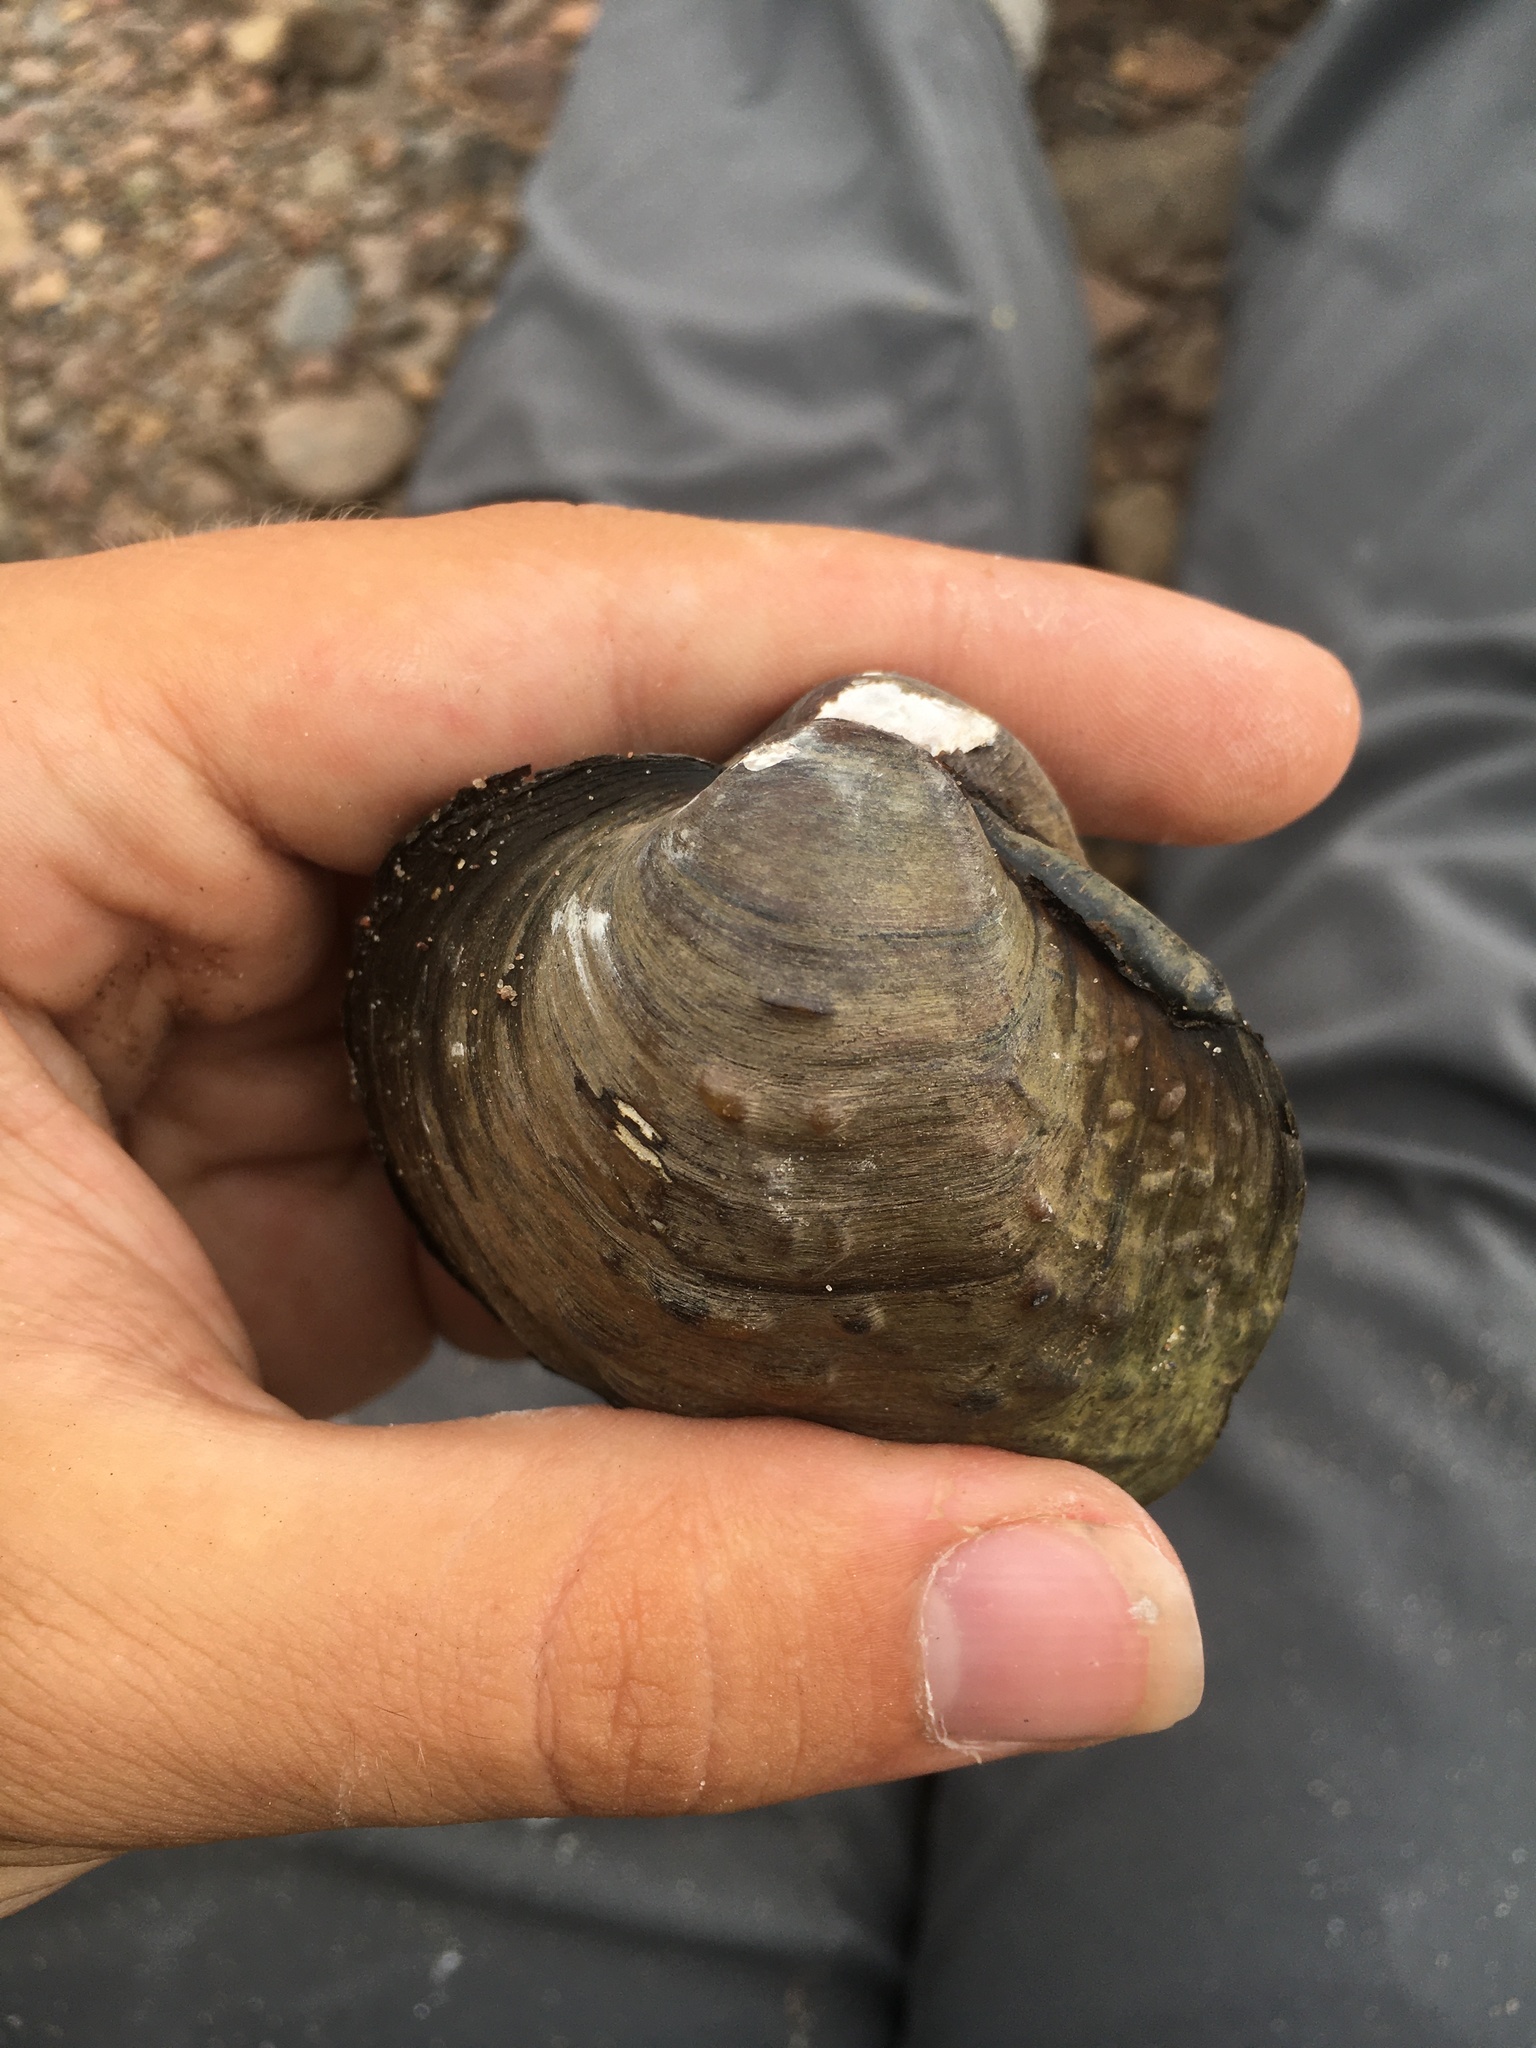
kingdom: Animalia
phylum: Mollusca
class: Bivalvia
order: Unionida
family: Unionidae
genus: Cyclonaias
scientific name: Cyclonaias pustulosa
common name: Pimpleback
